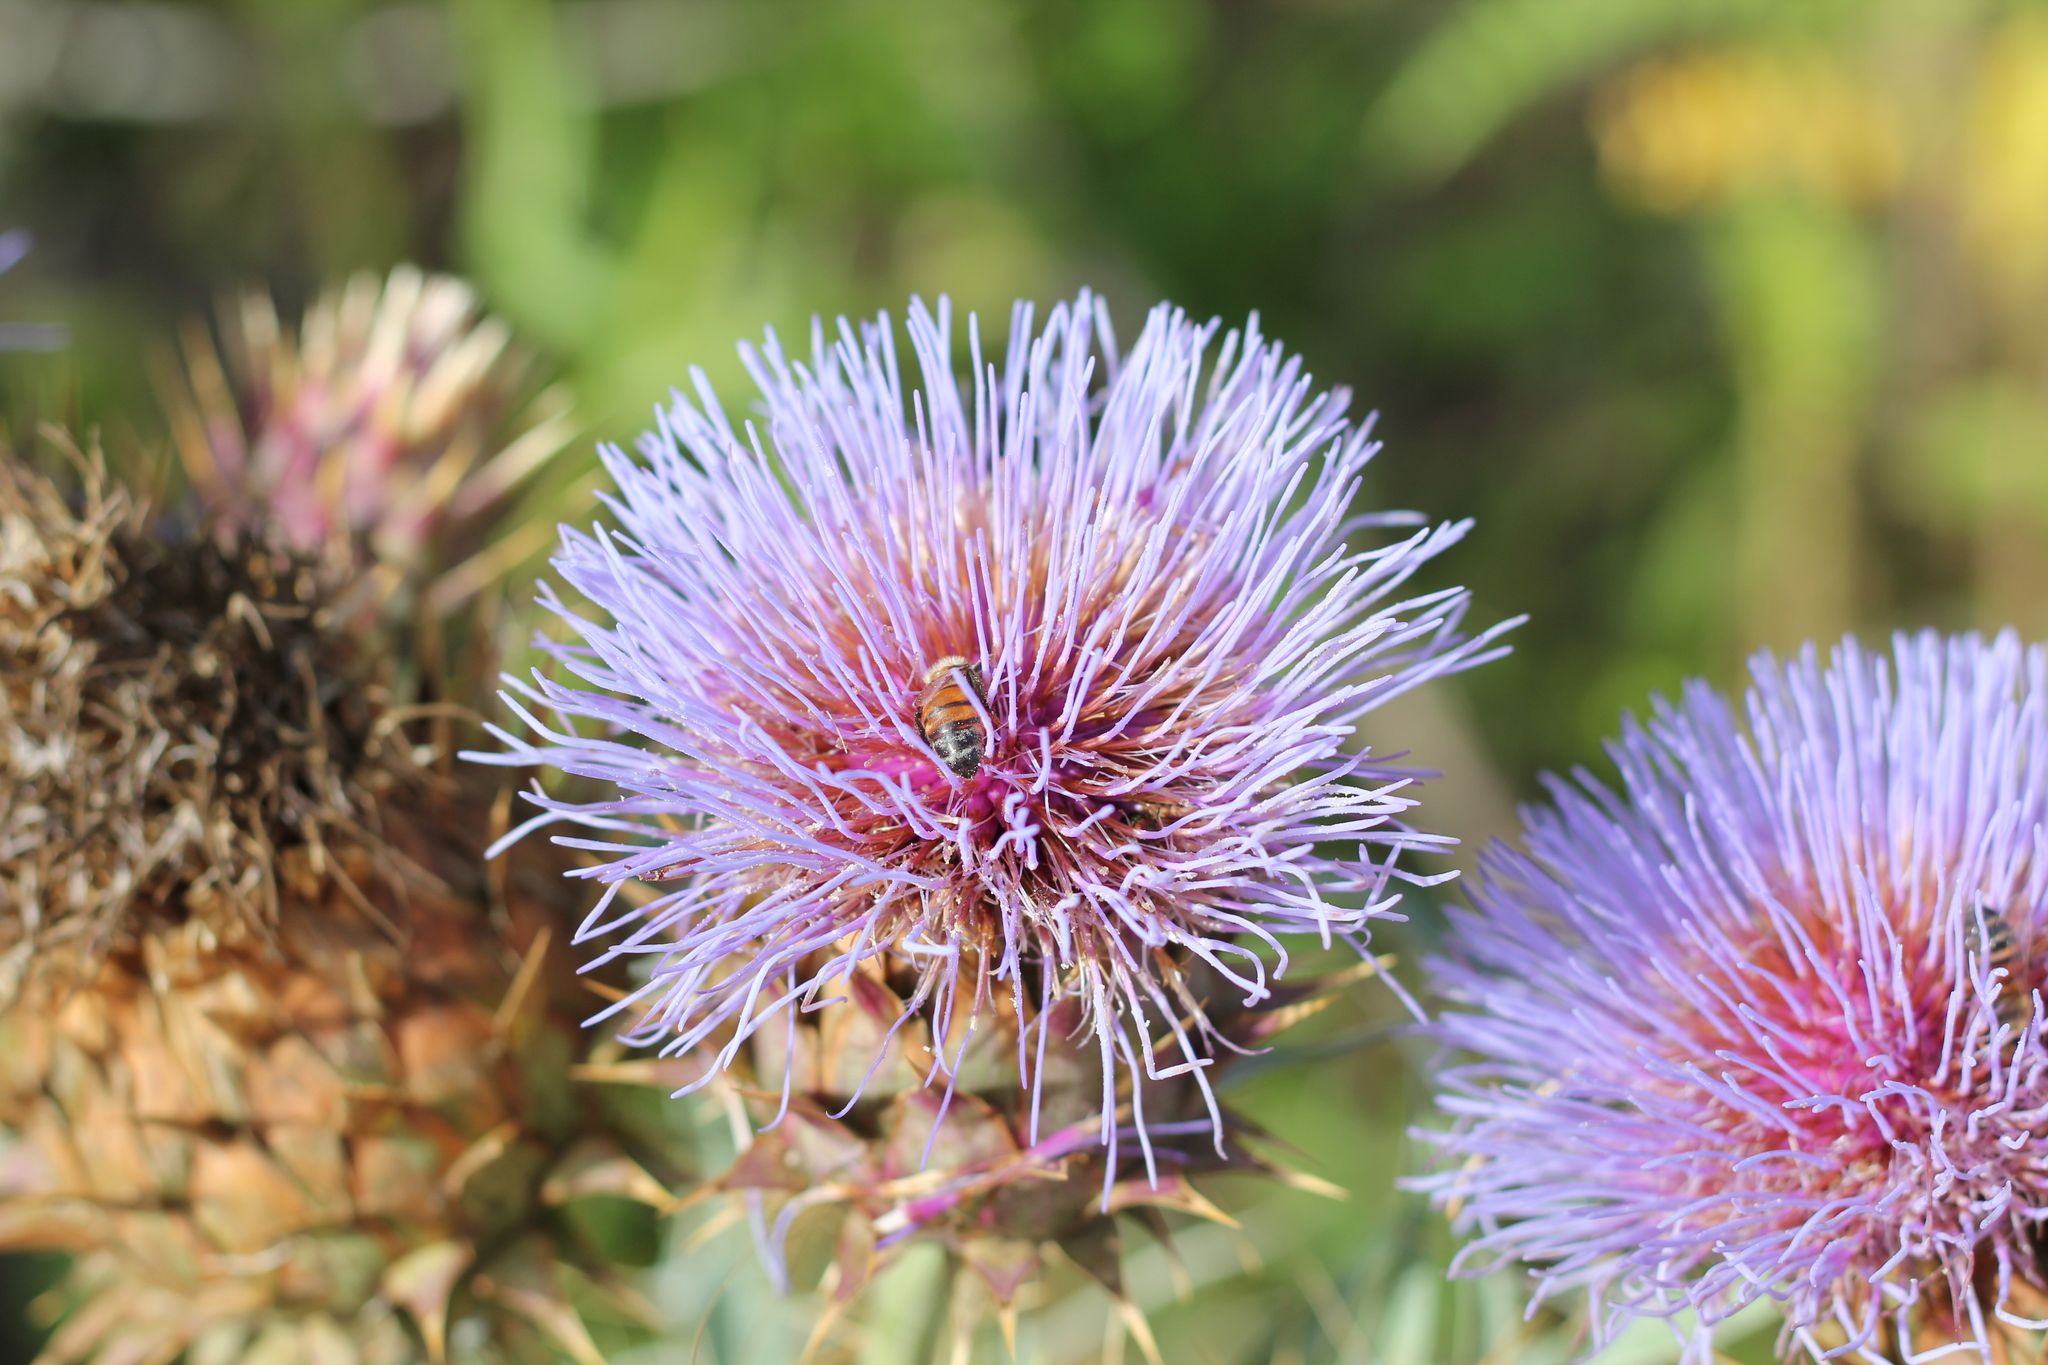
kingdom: Plantae
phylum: Tracheophyta
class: Magnoliopsida
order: Asterales
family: Asteraceae
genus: Cynara
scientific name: Cynara cardunculus
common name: Globe artichoke
